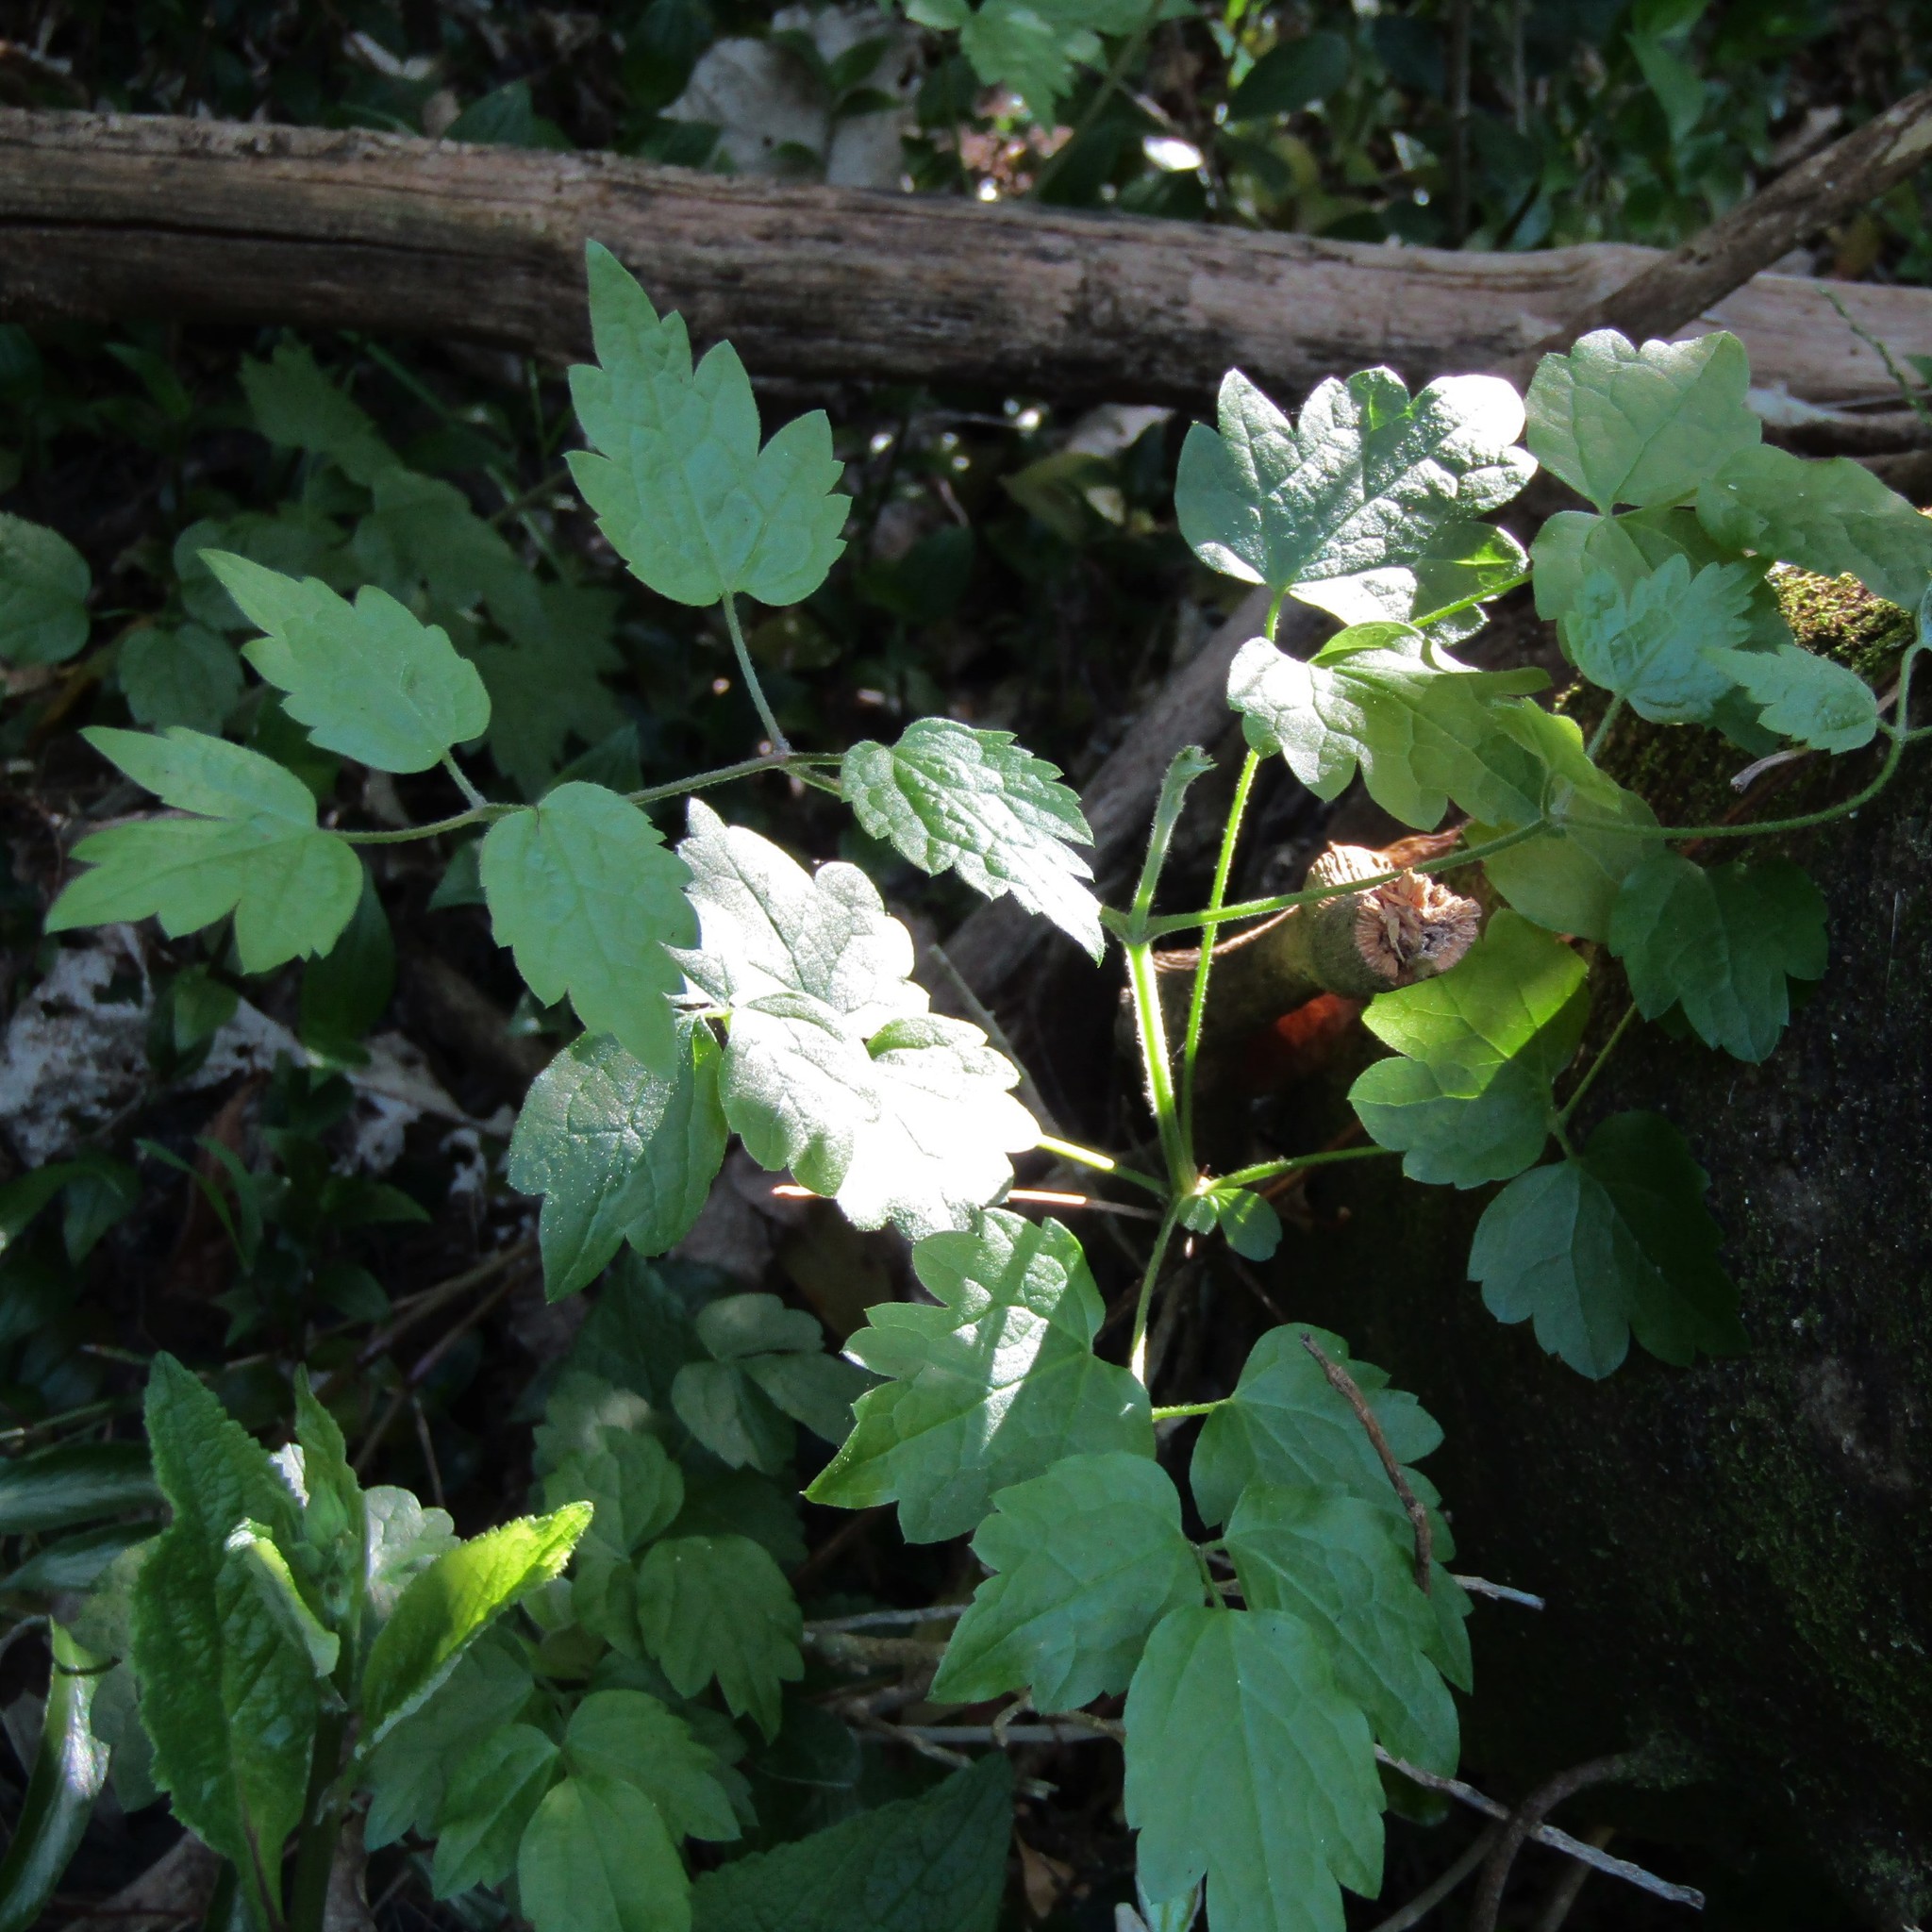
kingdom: Plantae
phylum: Tracheophyta
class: Magnoliopsida
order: Ranunculales
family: Ranunculaceae
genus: Clematis
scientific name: Clematis vitalba
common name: Evergreen clematis
